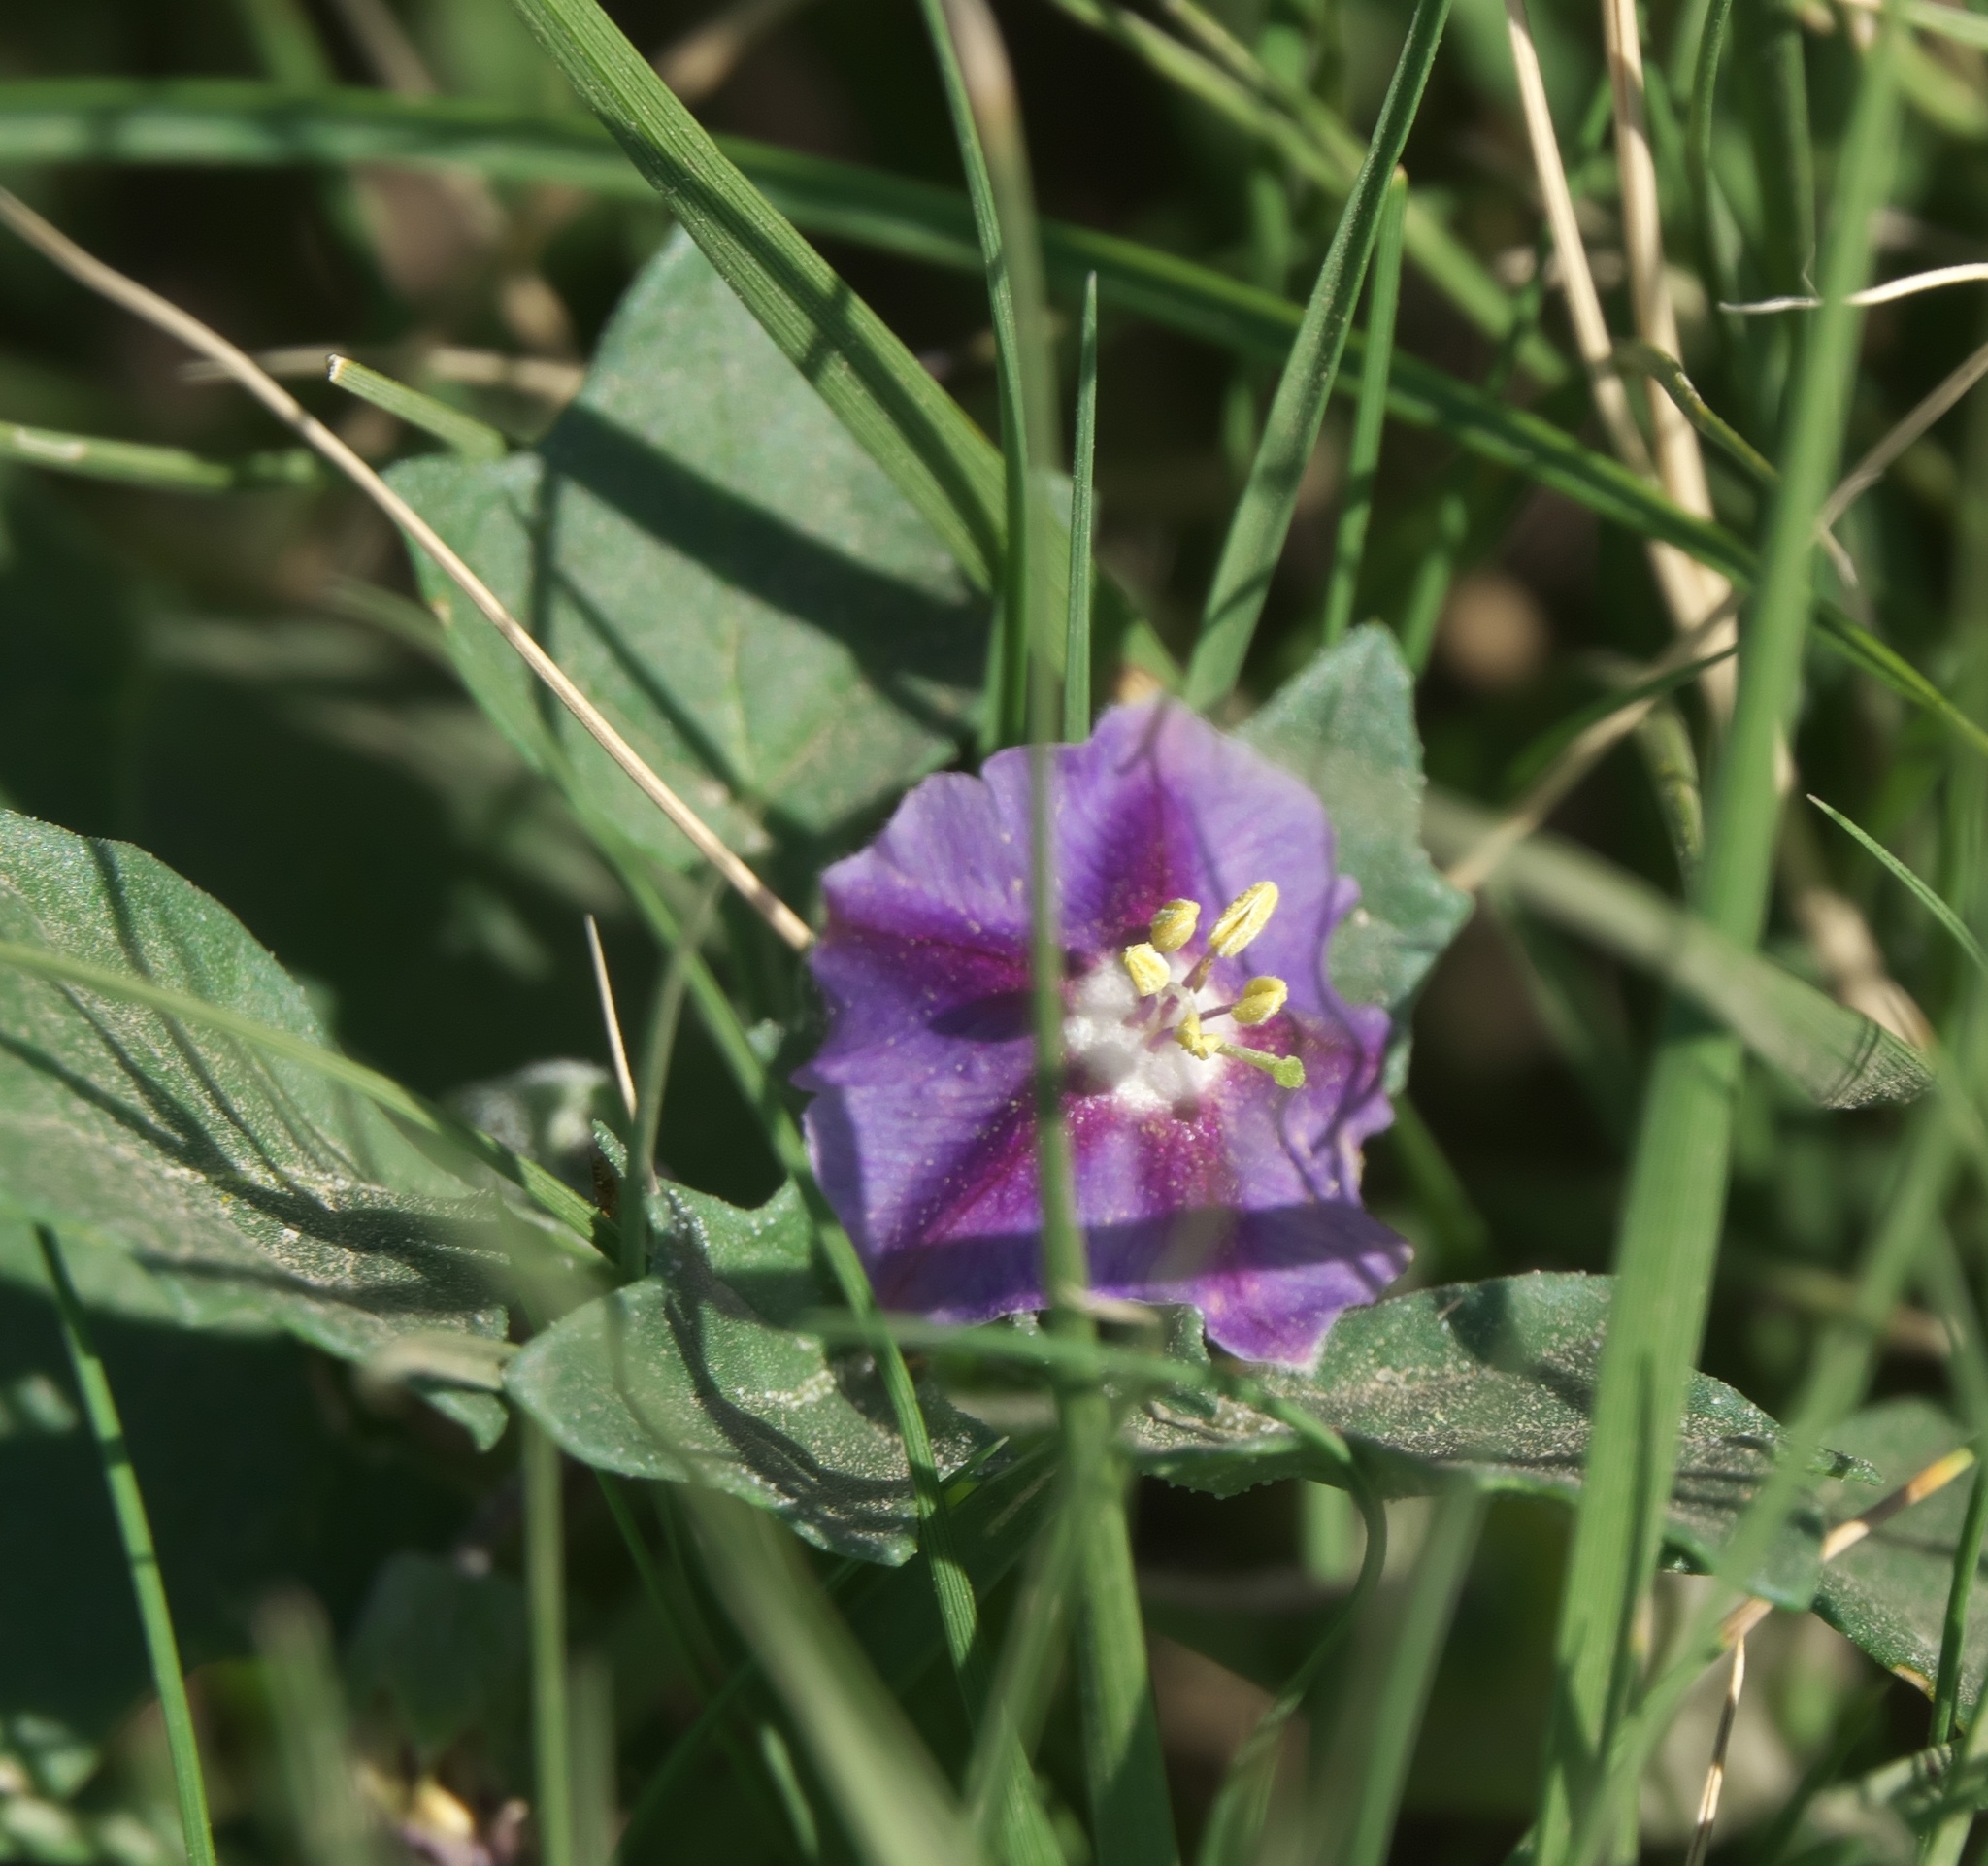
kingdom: Plantae
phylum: Tracheophyta
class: Magnoliopsida
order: Solanales
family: Solanaceae
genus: Quincula
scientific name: Quincula lobata
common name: Purple-ground-cherry
